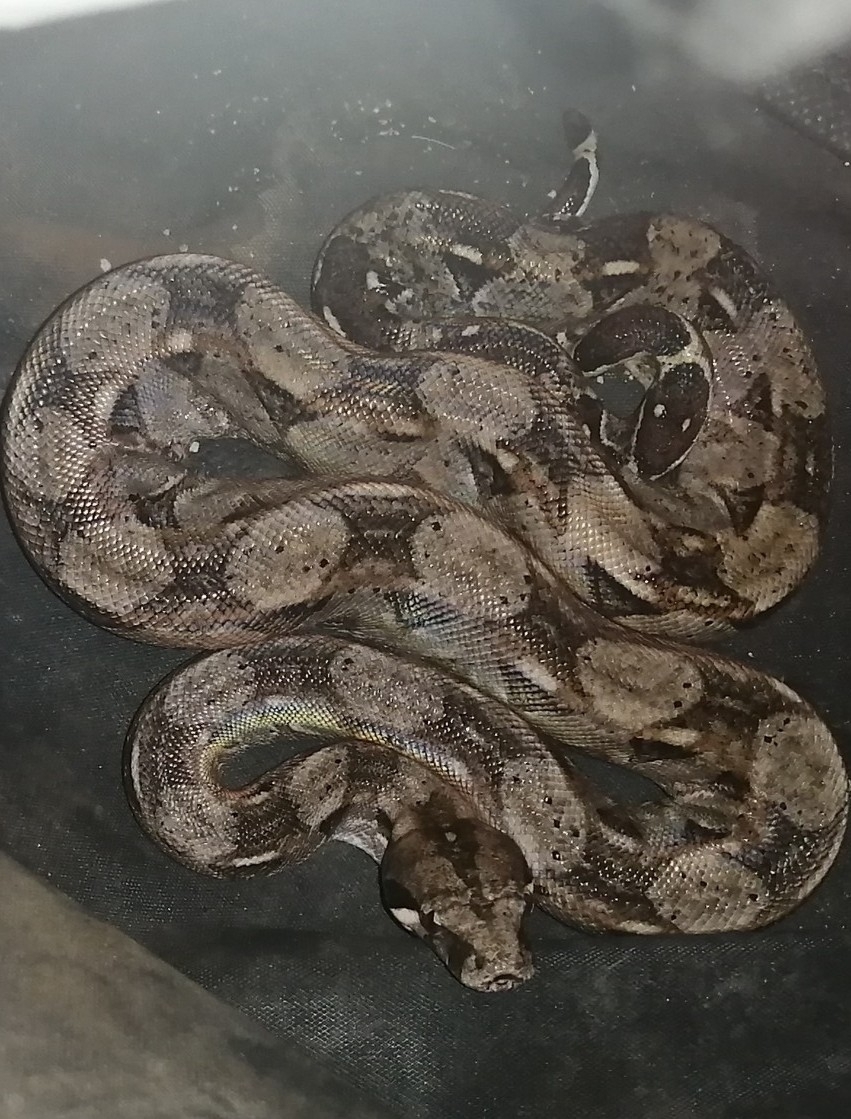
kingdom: Animalia
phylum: Chordata
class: Squamata
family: Boidae
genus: Boa
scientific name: Boa imperator
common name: Central american boa
